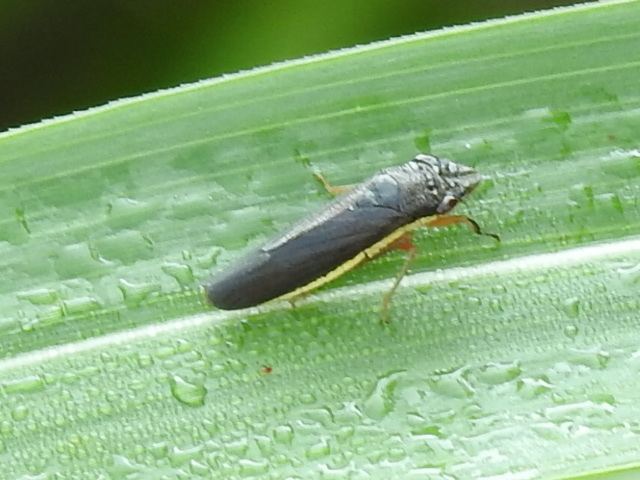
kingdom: Animalia
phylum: Arthropoda
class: Insecta
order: Hemiptera
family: Cicadellidae
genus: Homalodisca
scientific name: Homalodisca insolita
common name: Johnson grass sharpshooter
